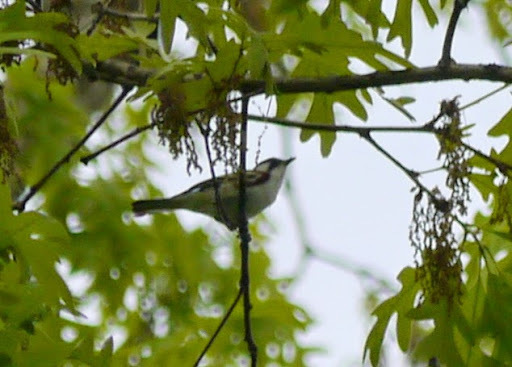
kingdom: Animalia
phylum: Chordata
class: Aves
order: Passeriformes
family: Parulidae
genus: Setophaga
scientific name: Setophaga pensylvanica
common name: Chestnut-sided warbler
